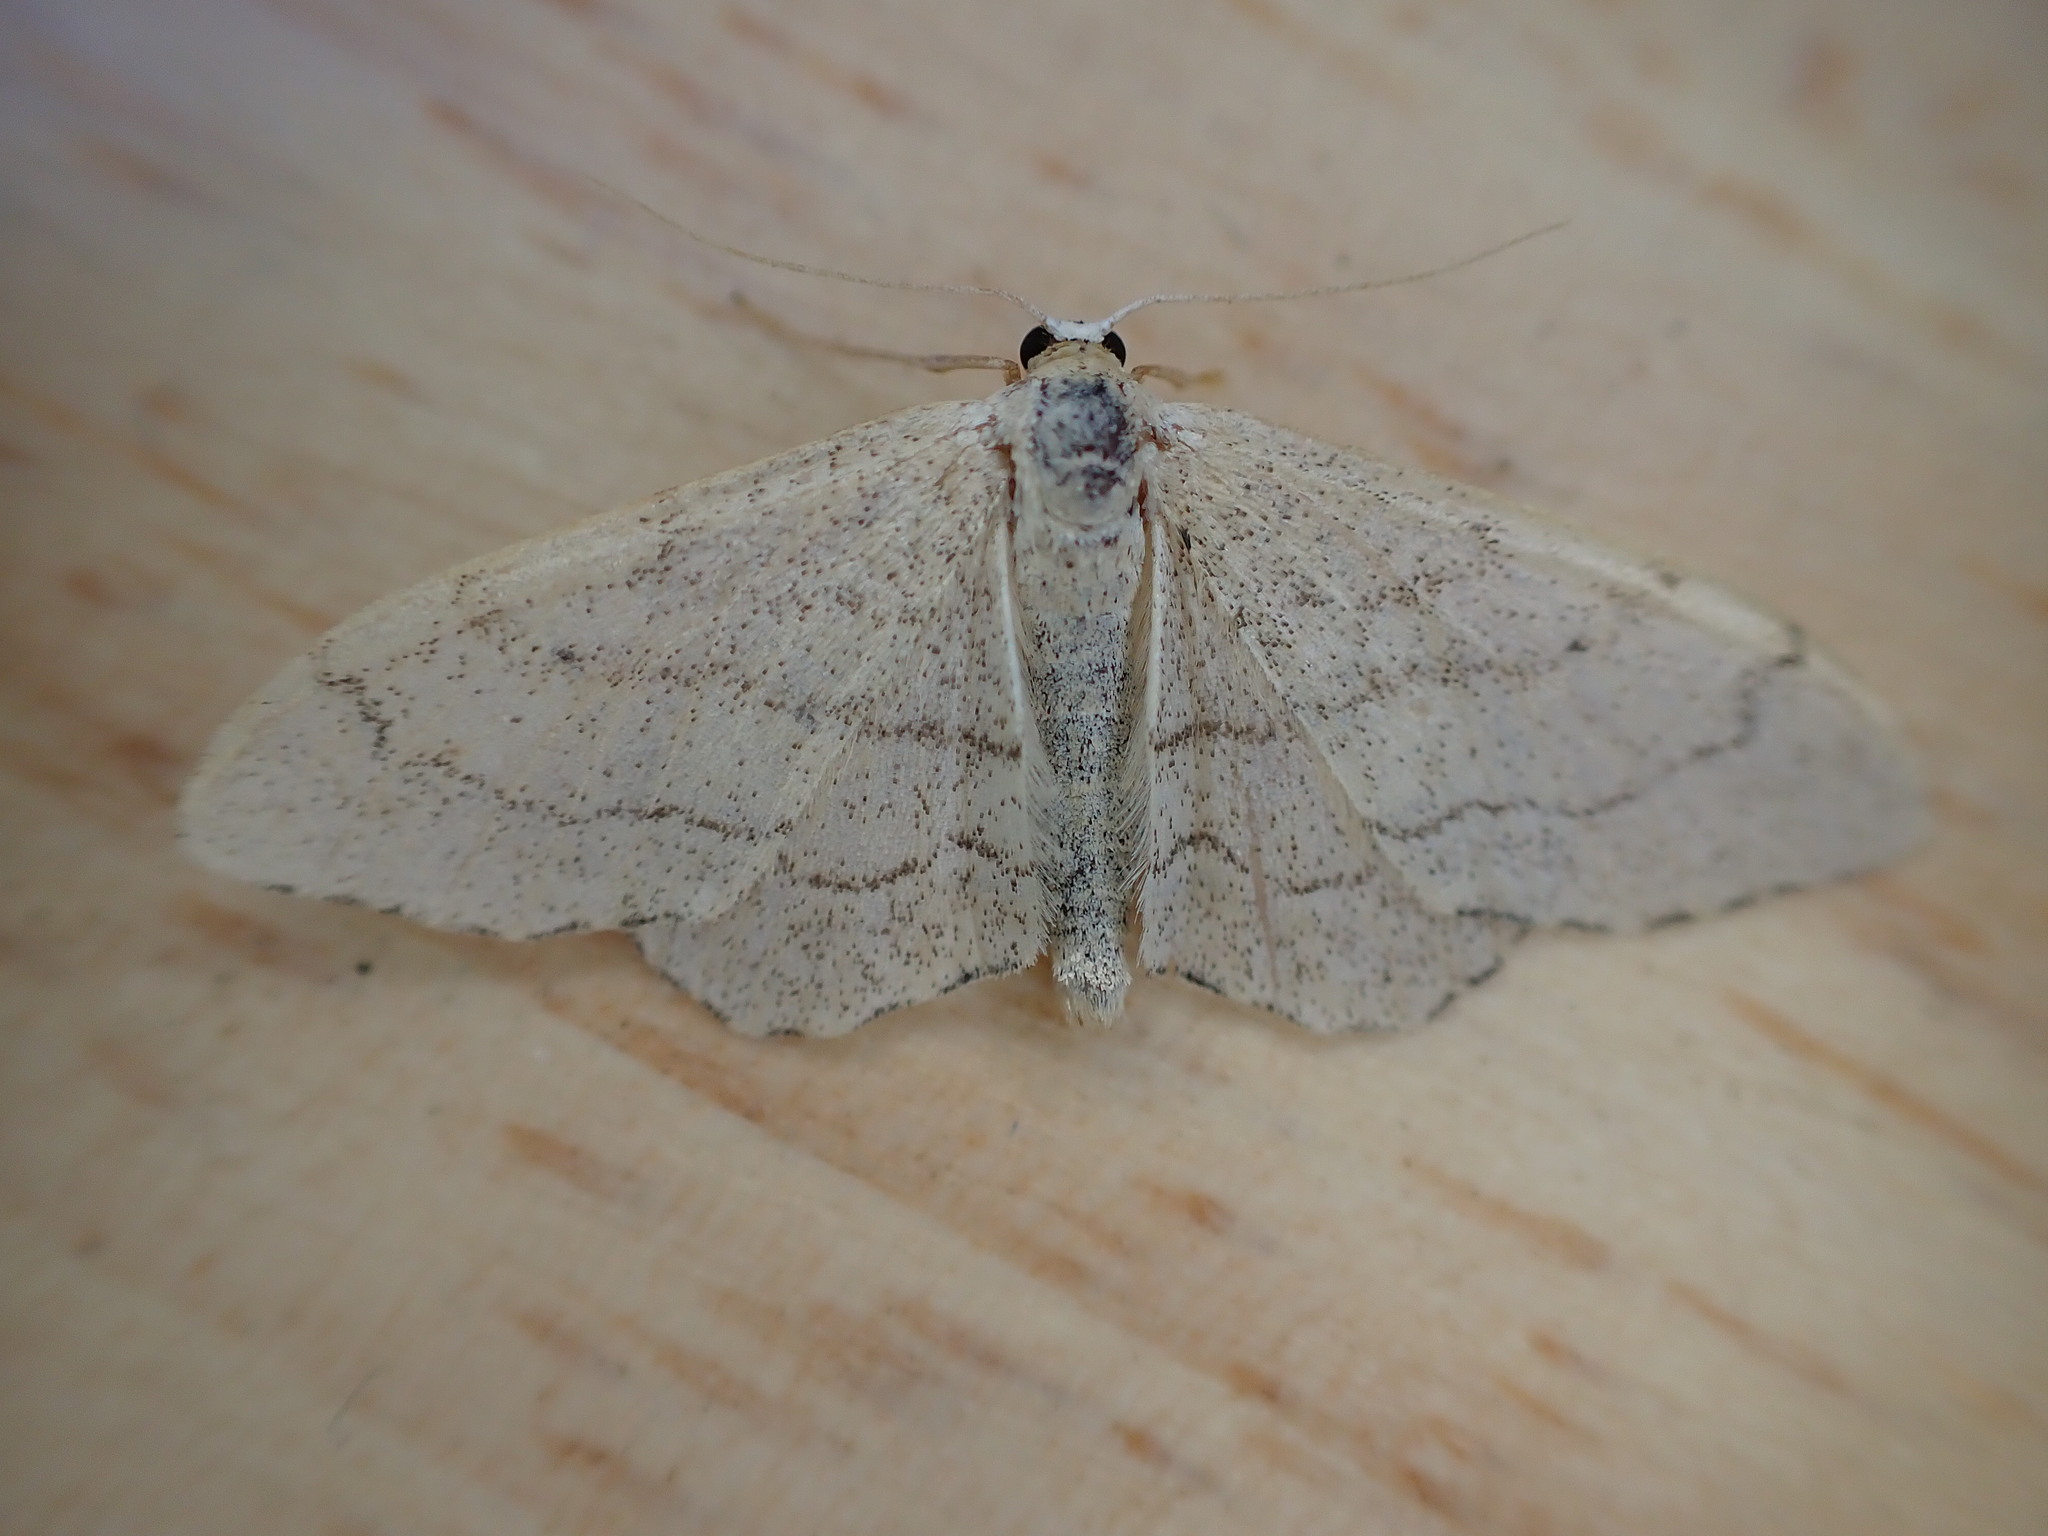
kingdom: Animalia
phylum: Arthropoda
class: Insecta
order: Lepidoptera
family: Geometridae
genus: Idaea
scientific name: Idaea aversata
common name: Riband wave
